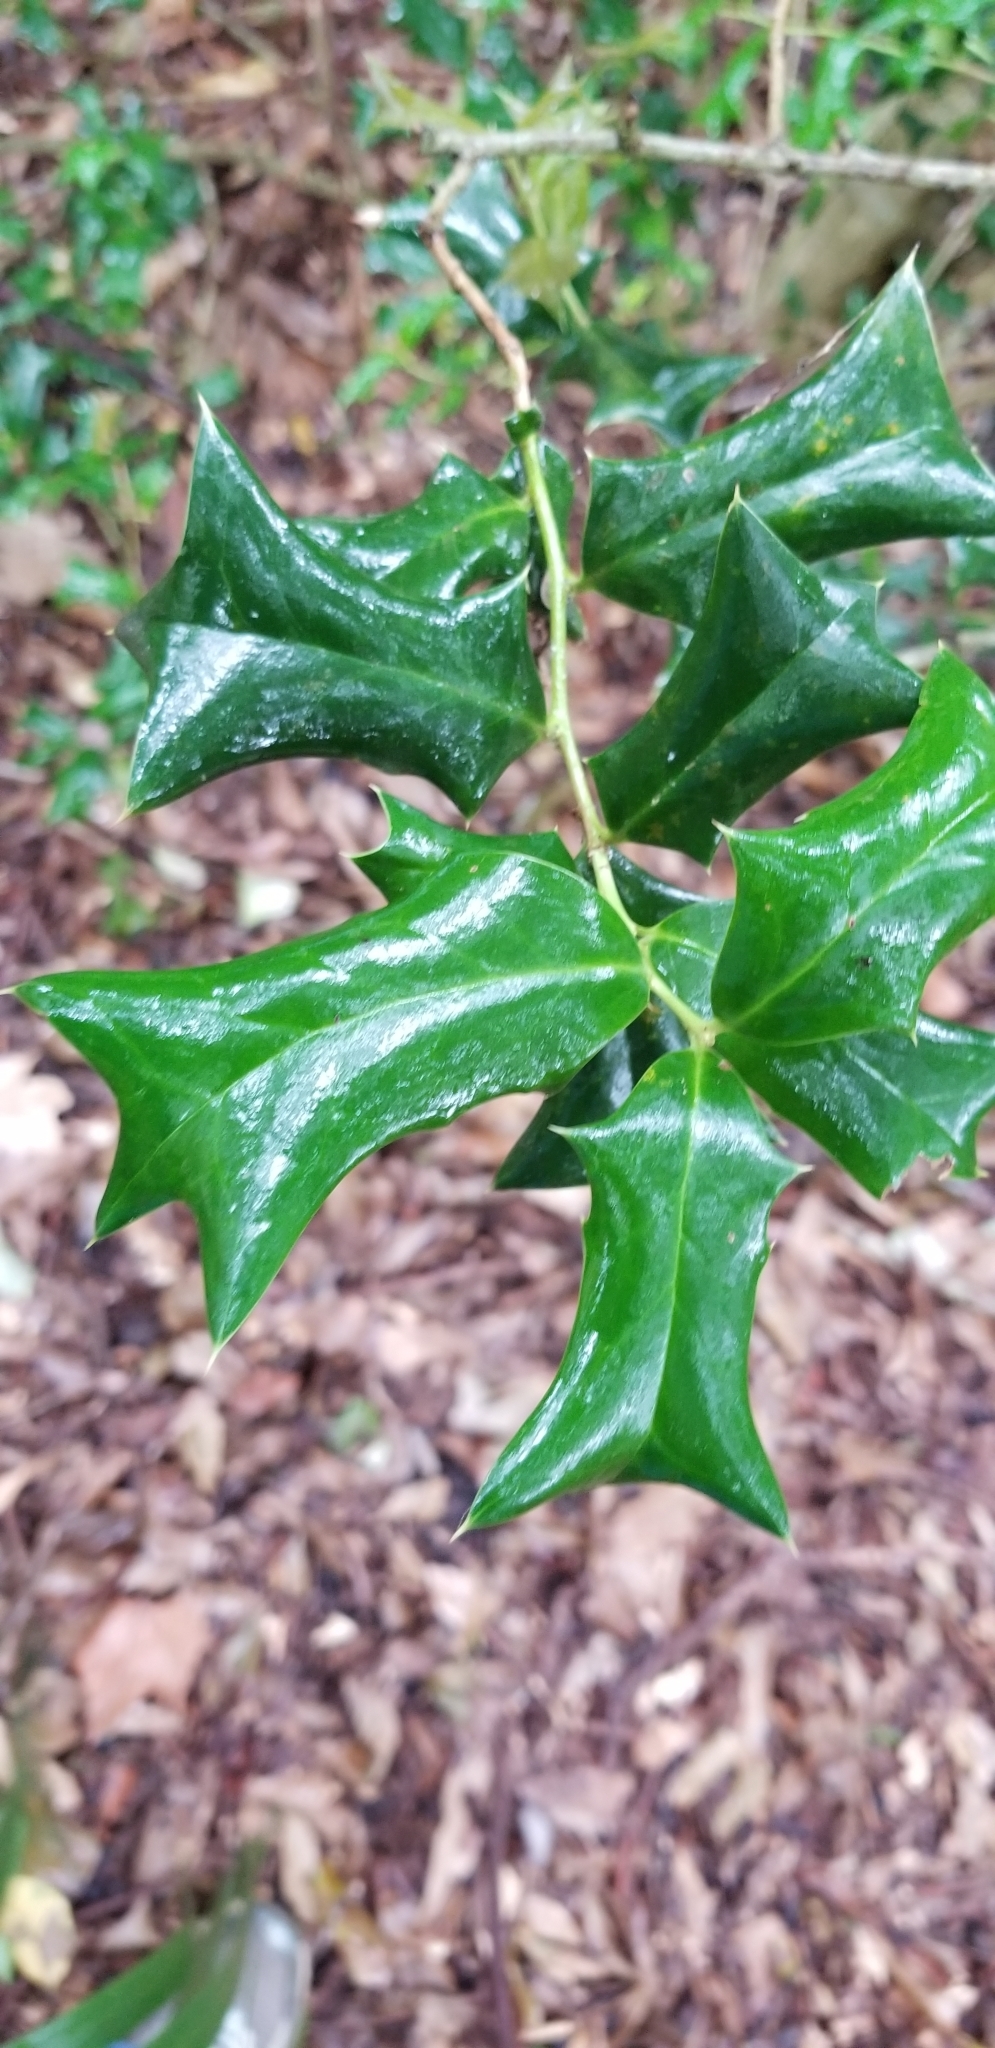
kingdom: Plantae
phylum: Tracheophyta
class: Magnoliopsida
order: Aquifoliales
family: Aquifoliaceae
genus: Ilex
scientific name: Ilex cornuta
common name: Chinese holly
